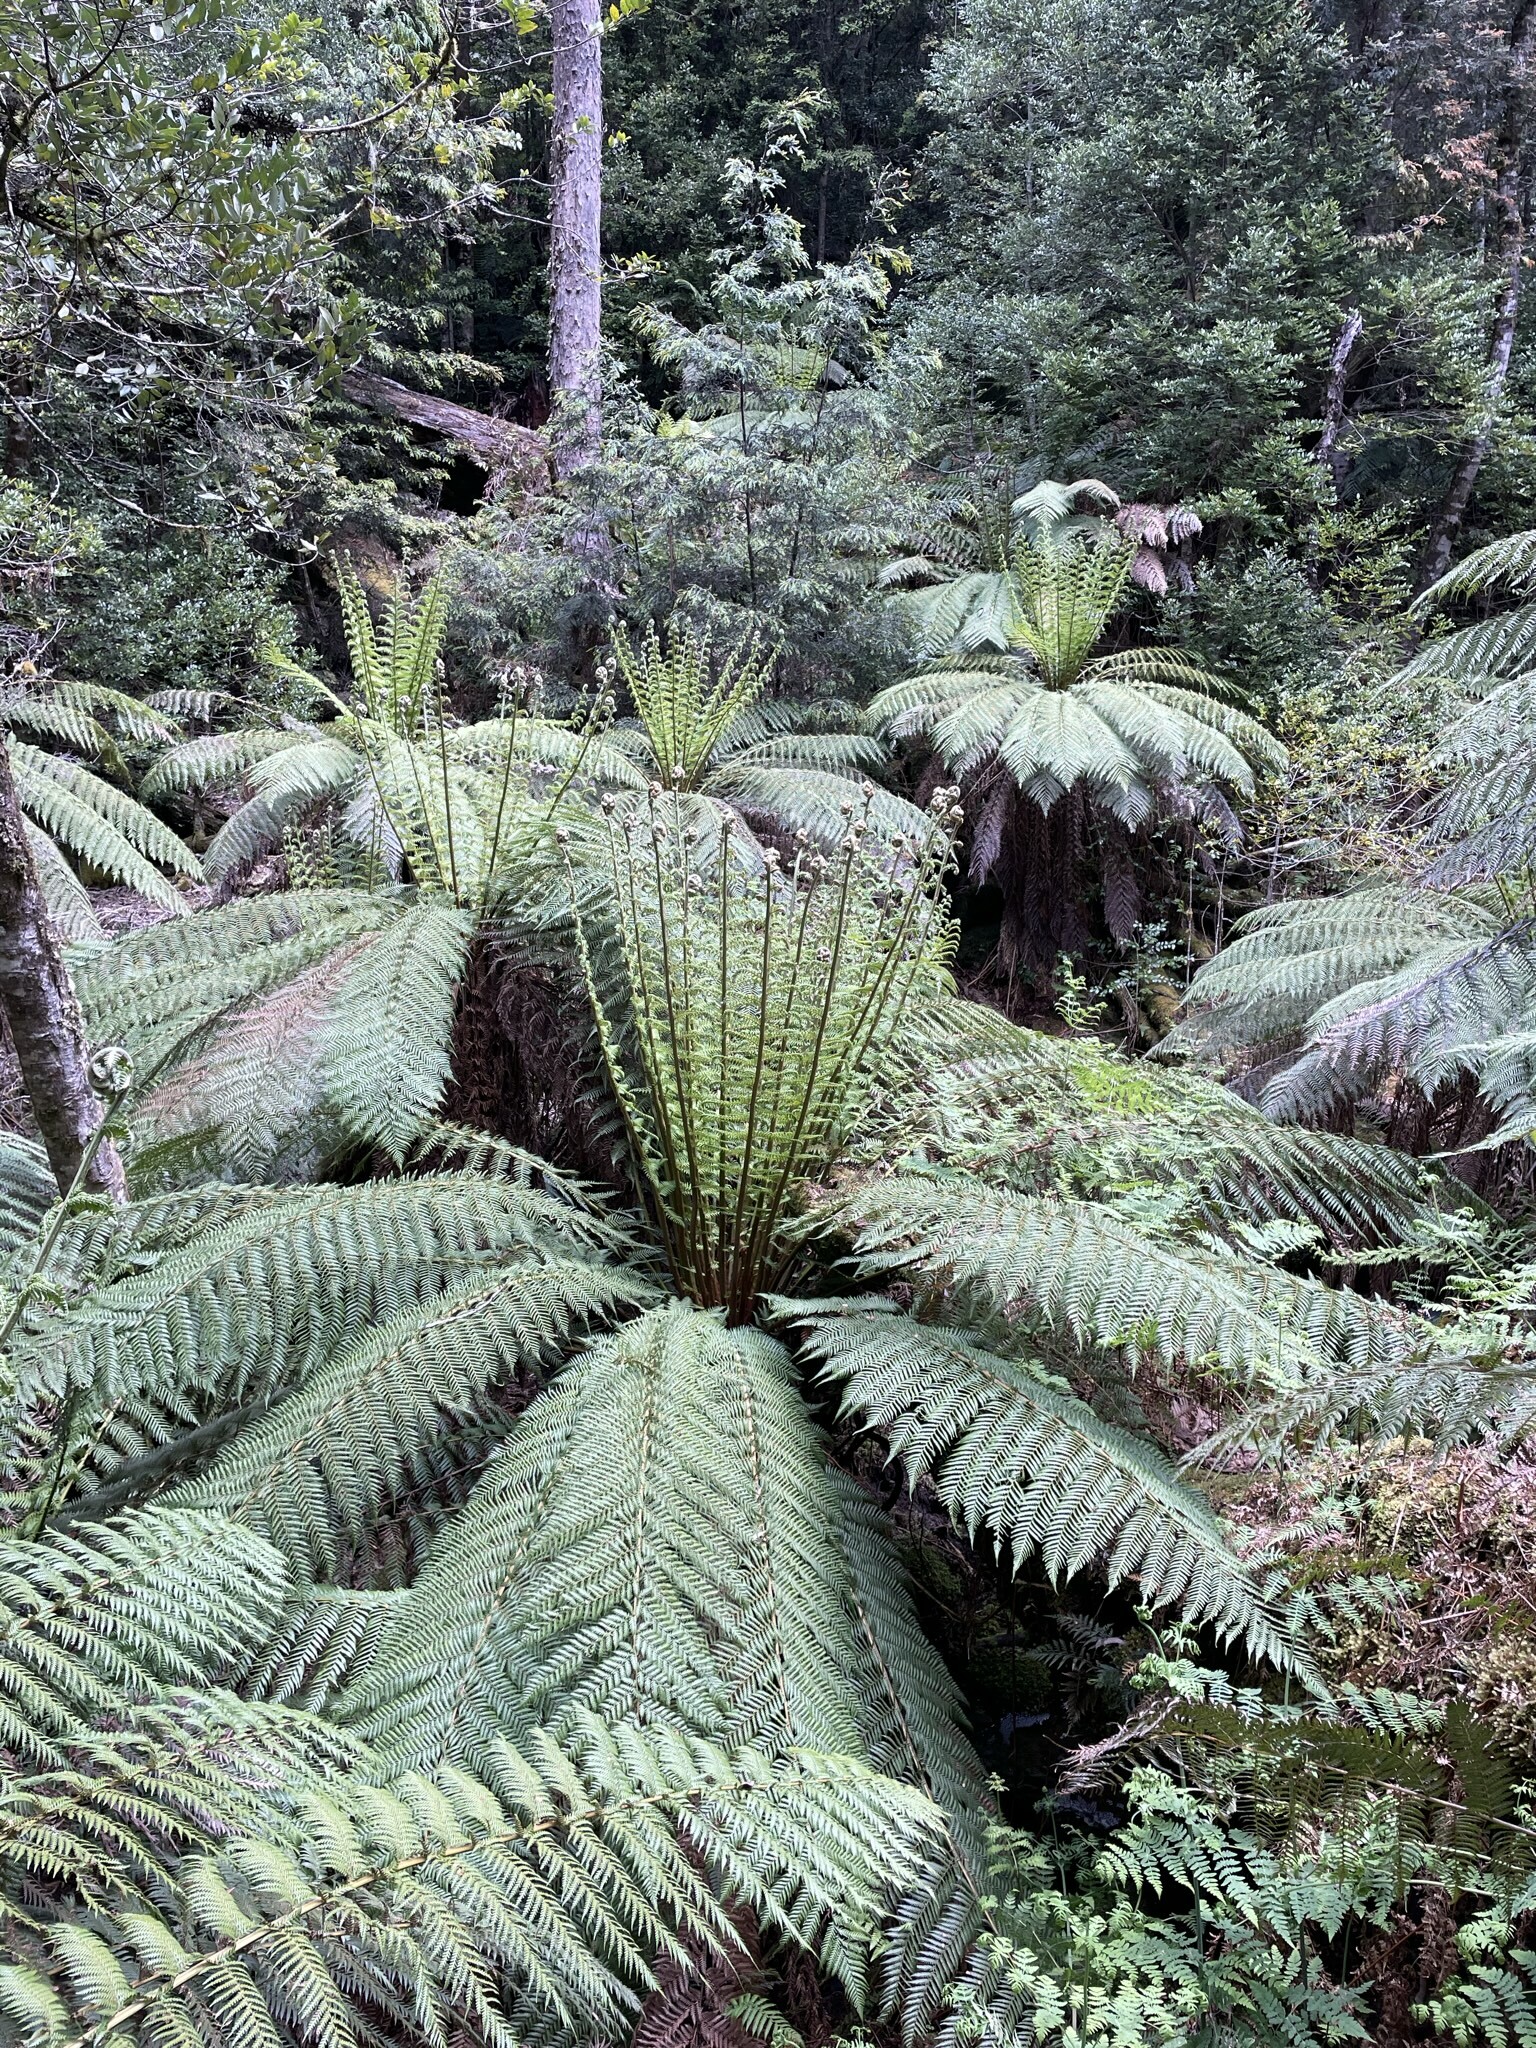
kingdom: Plantae
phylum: Tracheophyta
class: Polypodiopsida
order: Cyatheales
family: Dicksoniaceae
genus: Dicksonia
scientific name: Dicksonia antarctica
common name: Australian treefern
